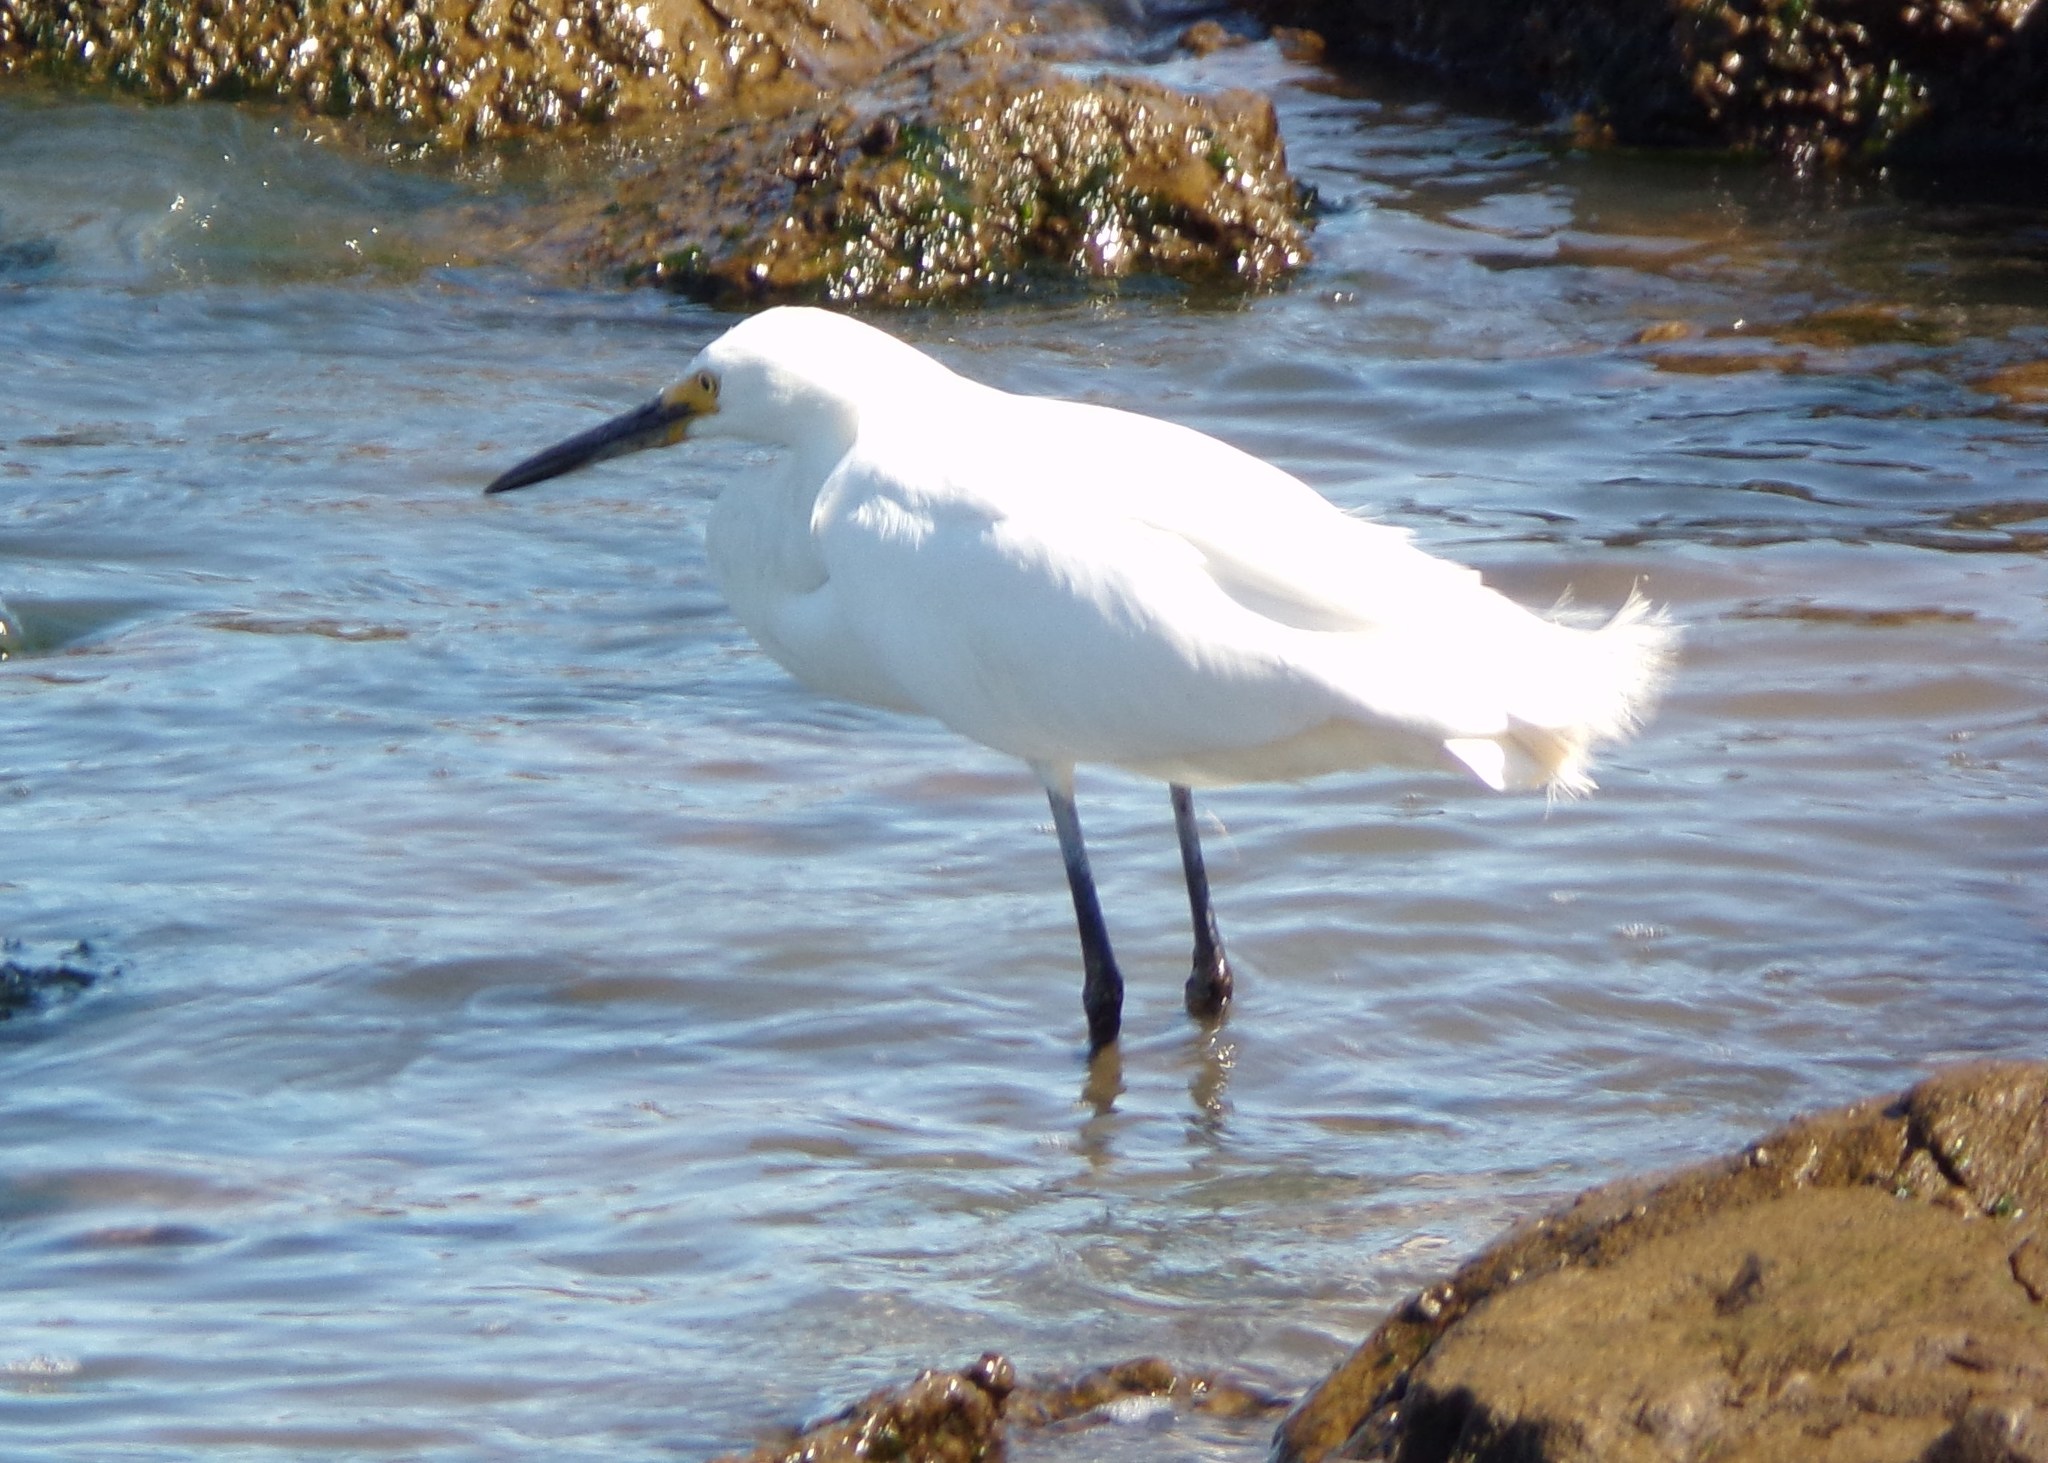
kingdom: Animalia
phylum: Chordata
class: Aves
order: Pelecaniformes
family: Ardeidae
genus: Egretta
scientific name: Egretta thula
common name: Snowy egret
